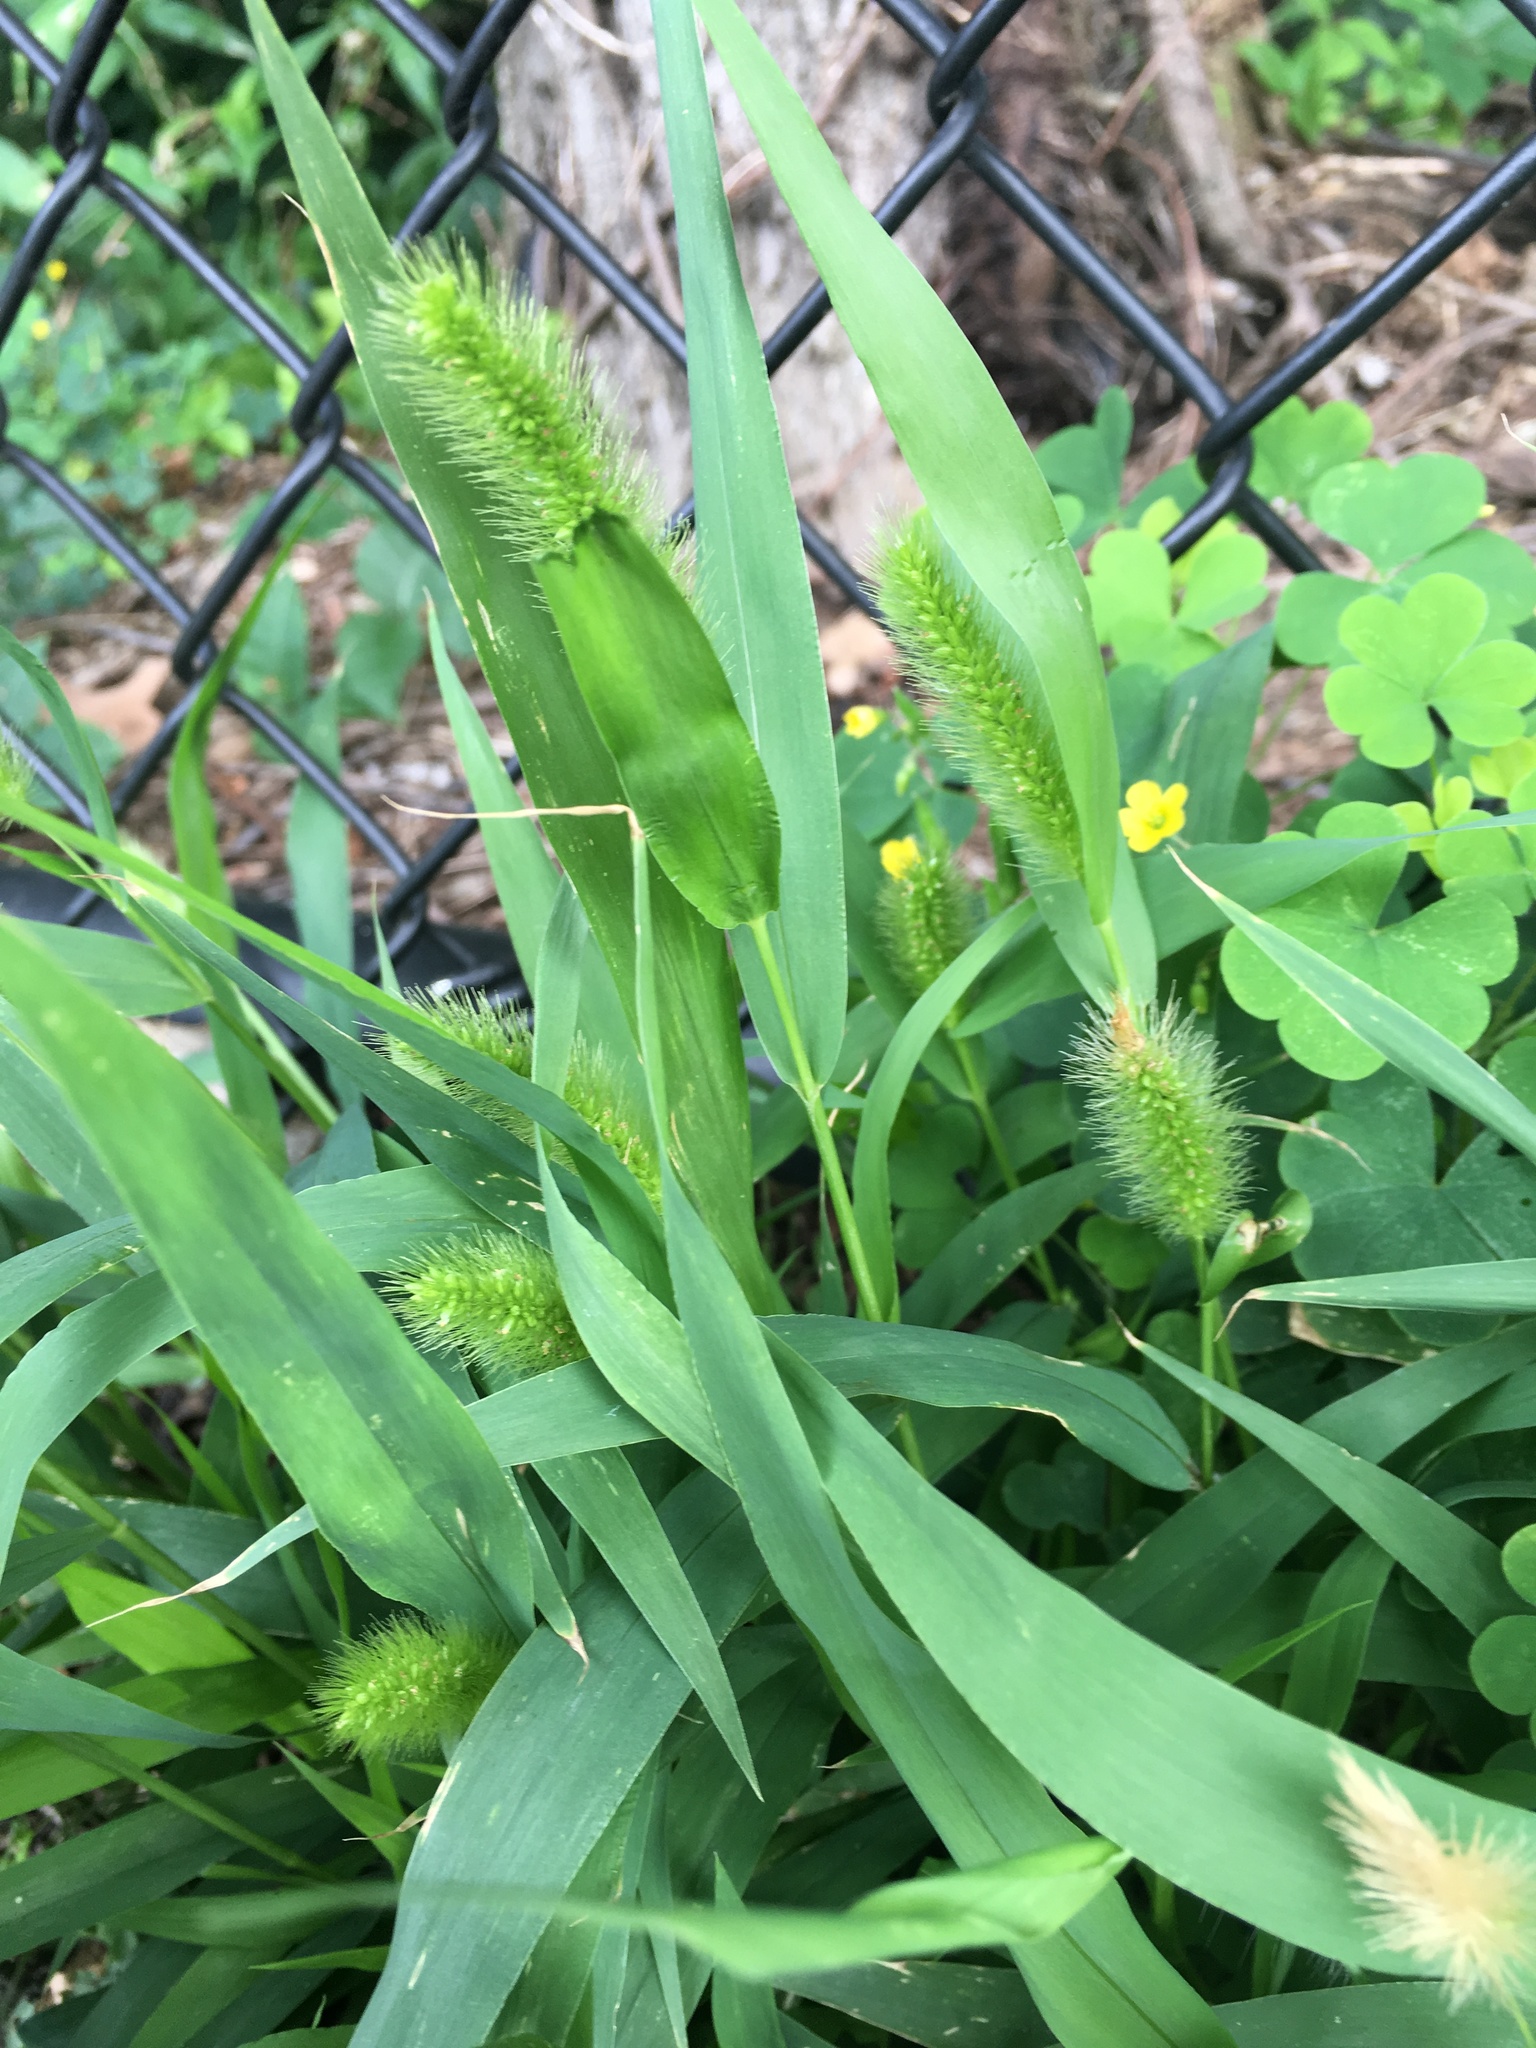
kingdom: Plantae
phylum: Tracheophyta
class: Liliopsida
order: Poales
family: Poaceae
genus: Setaria
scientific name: Setaria viridis
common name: Green bristlegrass
